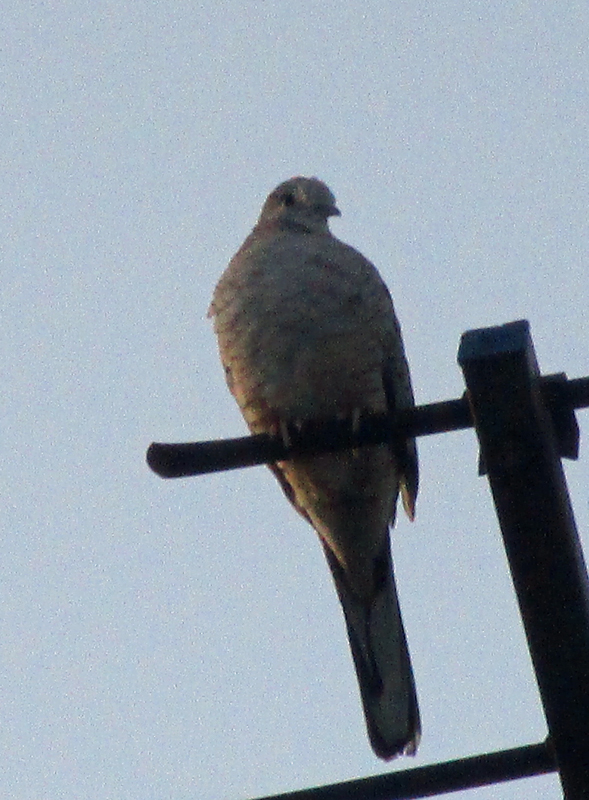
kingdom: Animalia
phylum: Chordata
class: Aves
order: Columbiformes
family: Columbidae
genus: Columbina
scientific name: Columbina inca
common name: Inca dove
